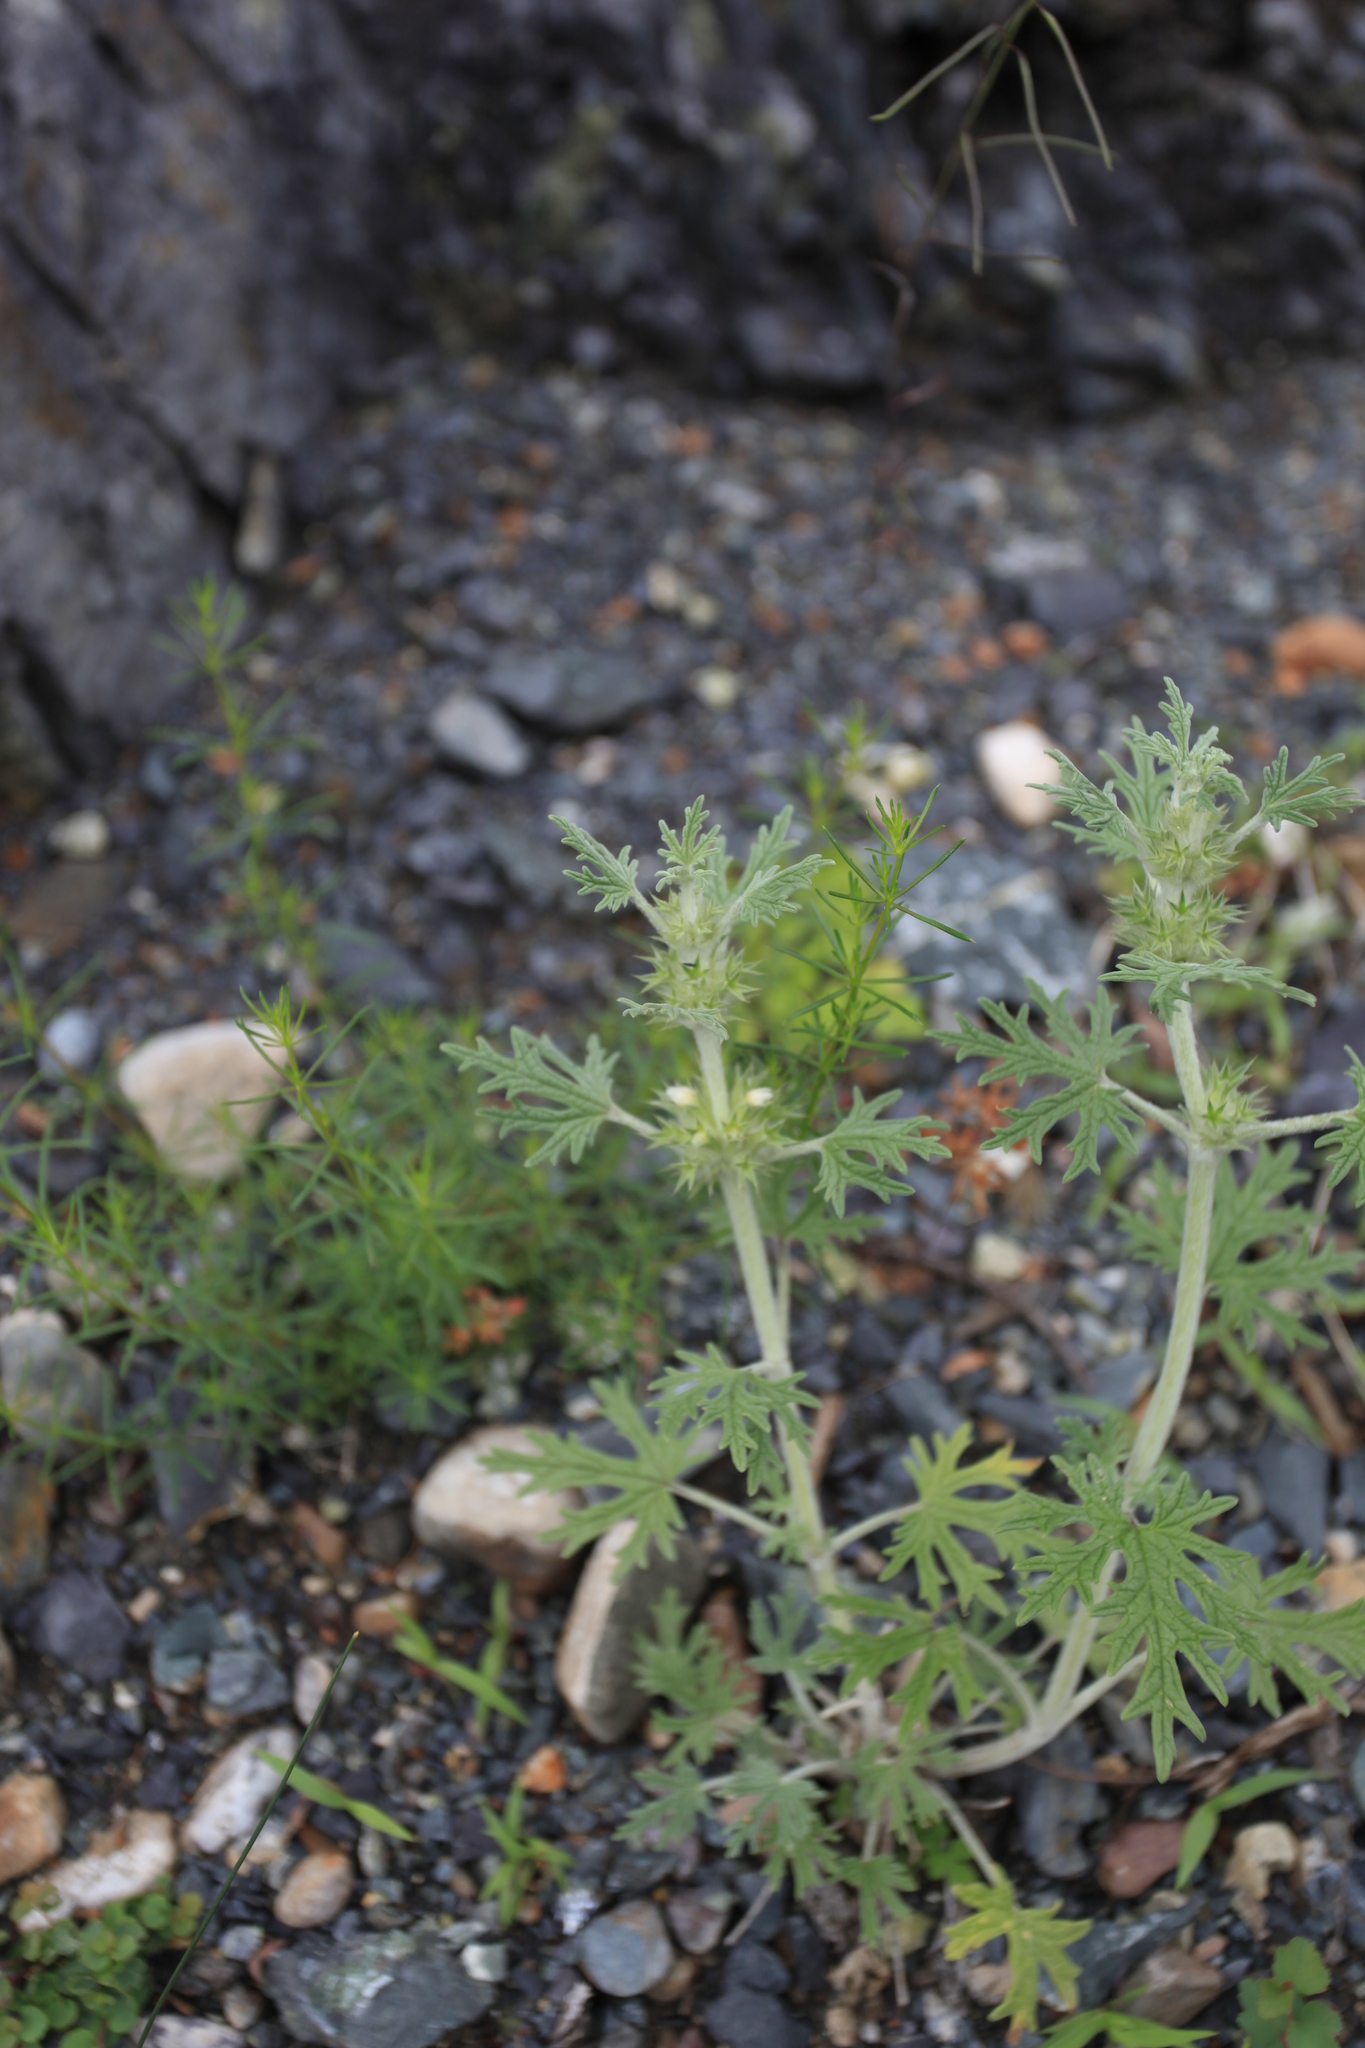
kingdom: Plantae
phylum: Tracheophyta
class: Magnoliopsida
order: Lamiales
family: Lamiaceae
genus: Panzerina
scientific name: Panzerina lanata
